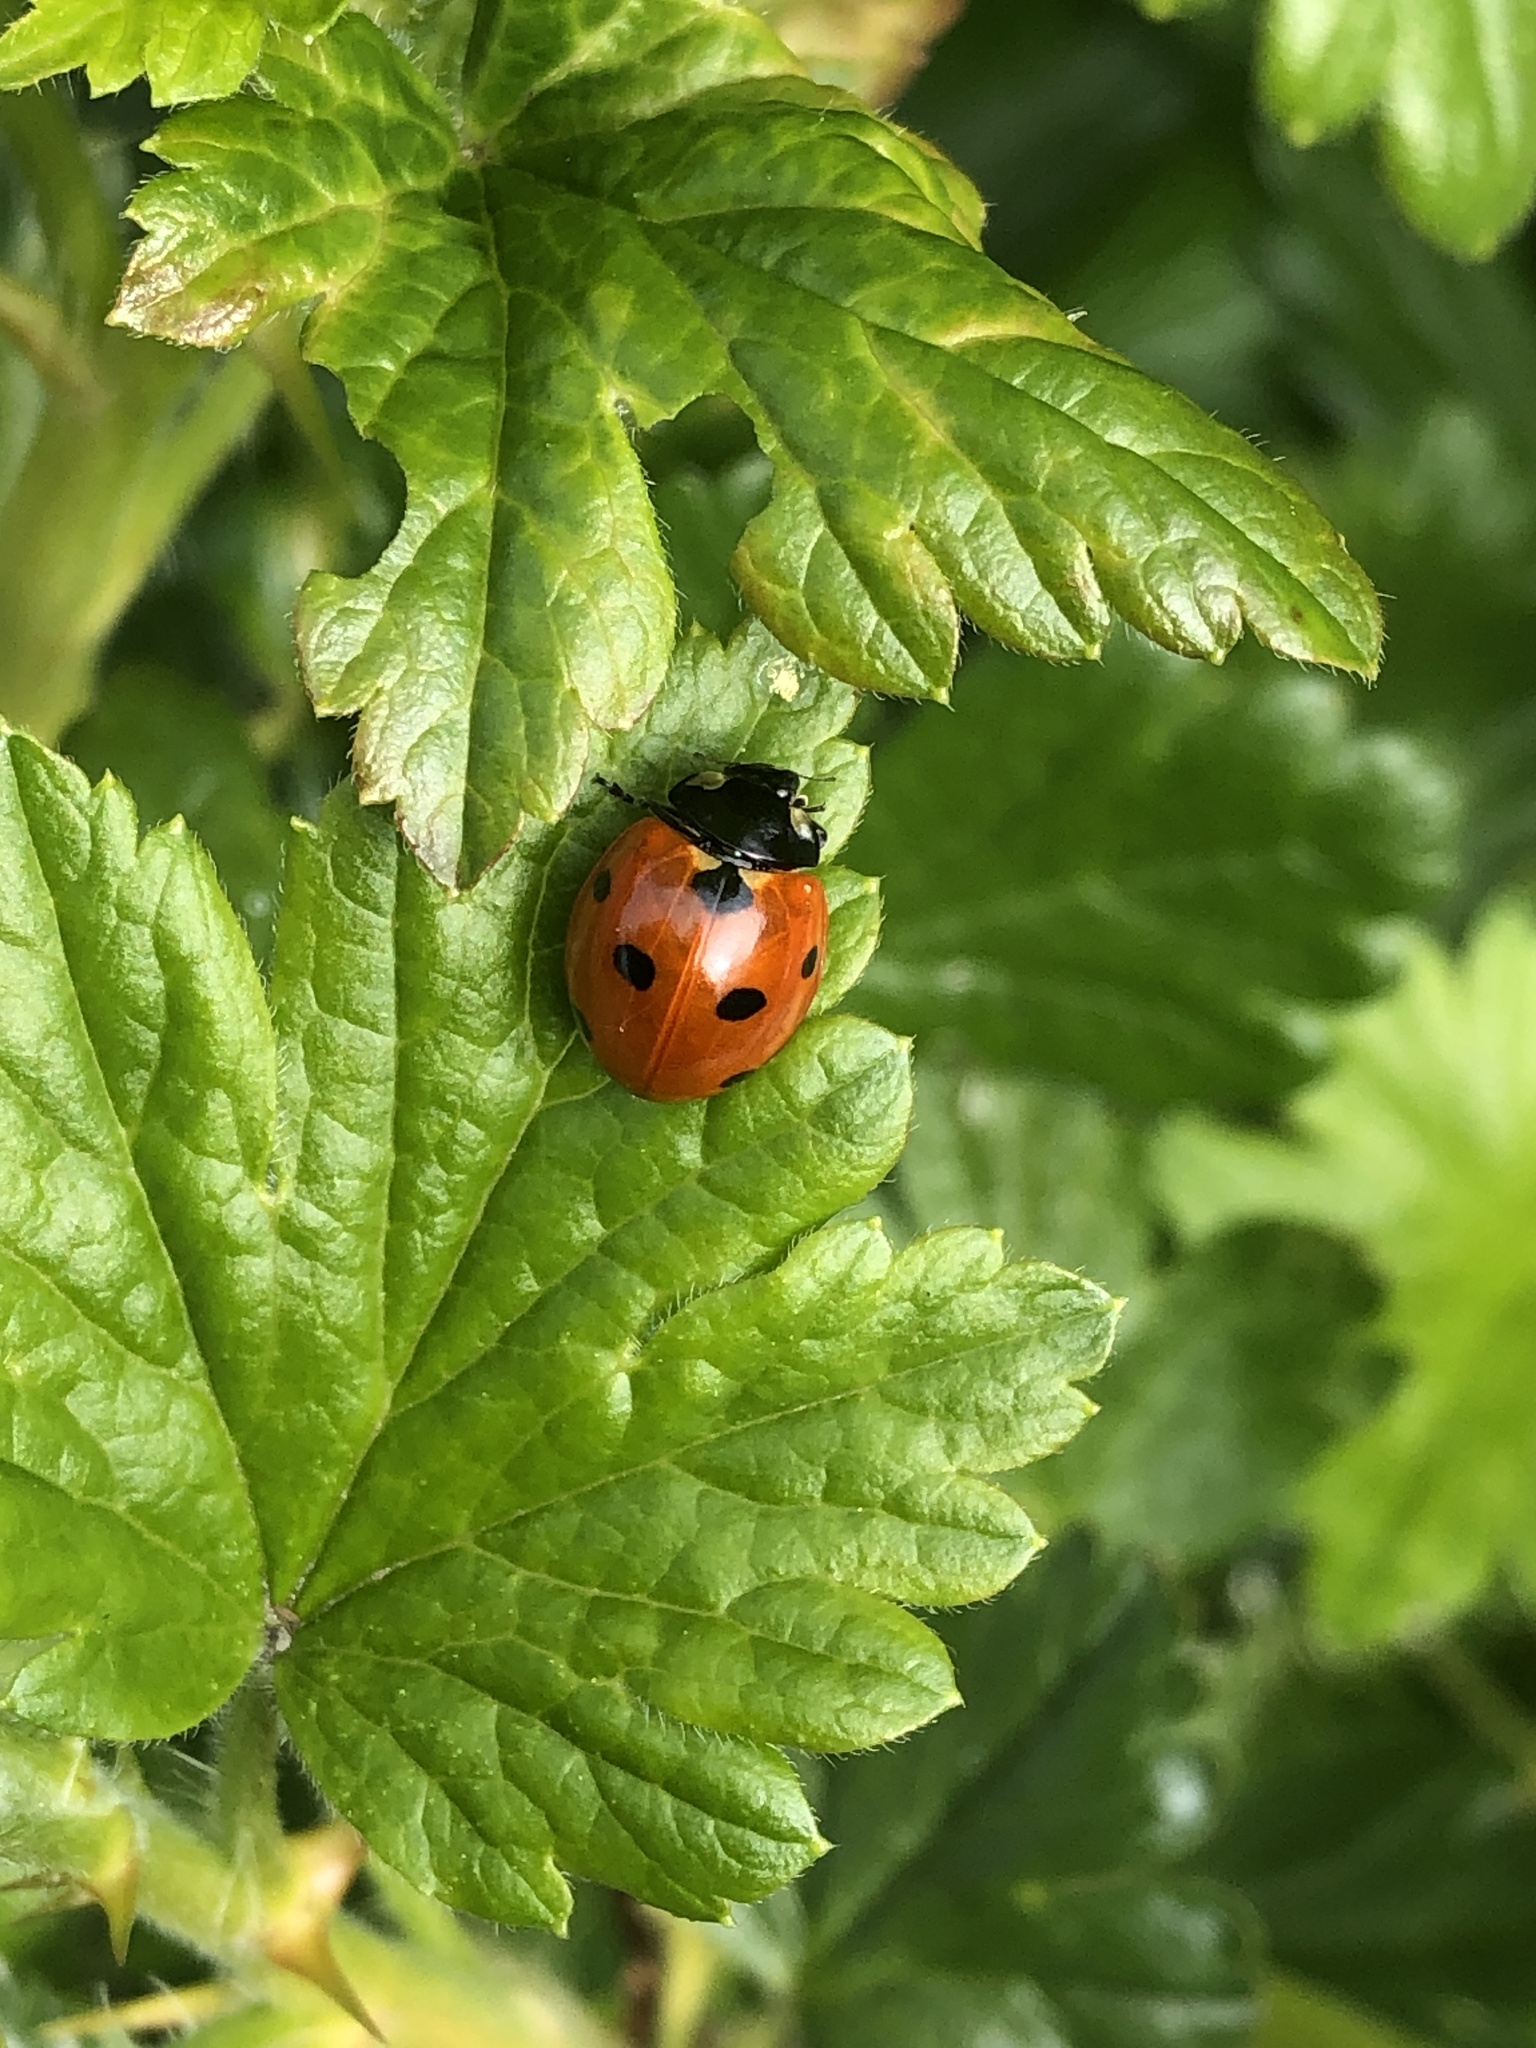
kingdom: Animalia
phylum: Arthropoda
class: Insecta
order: Coleoptera
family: Coccinellidae
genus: Coccinella
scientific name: Coccinella septempunctata
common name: Sevenspotted lady beetle
